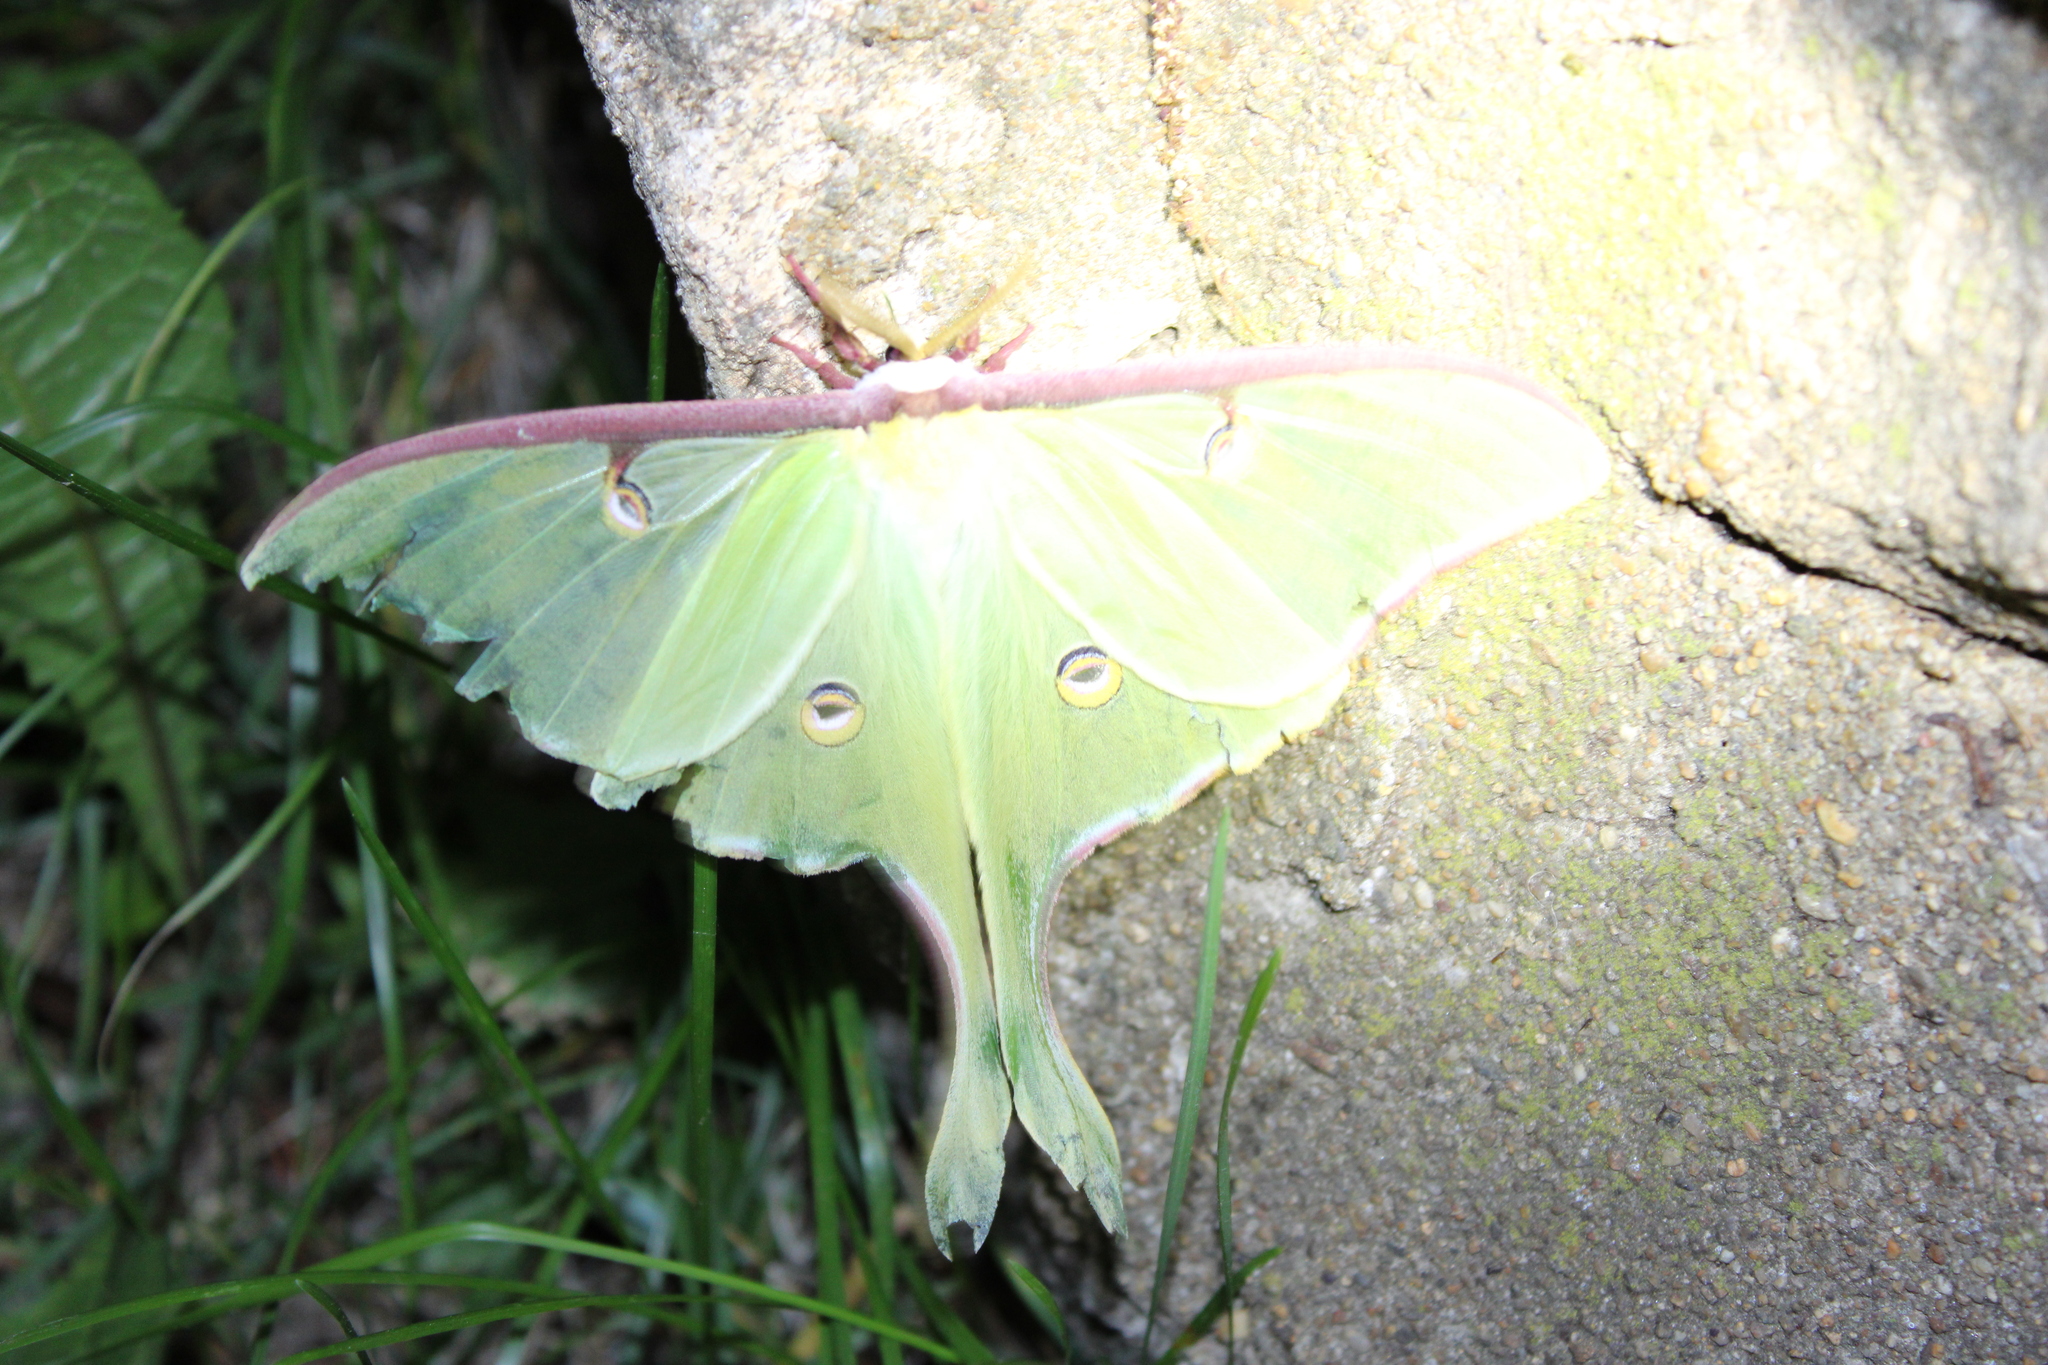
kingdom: Animalia
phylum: Arthropoda
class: Insecta
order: Lepidoptera
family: Saturniidae
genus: Actias
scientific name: Actias luna
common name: Luna moth
